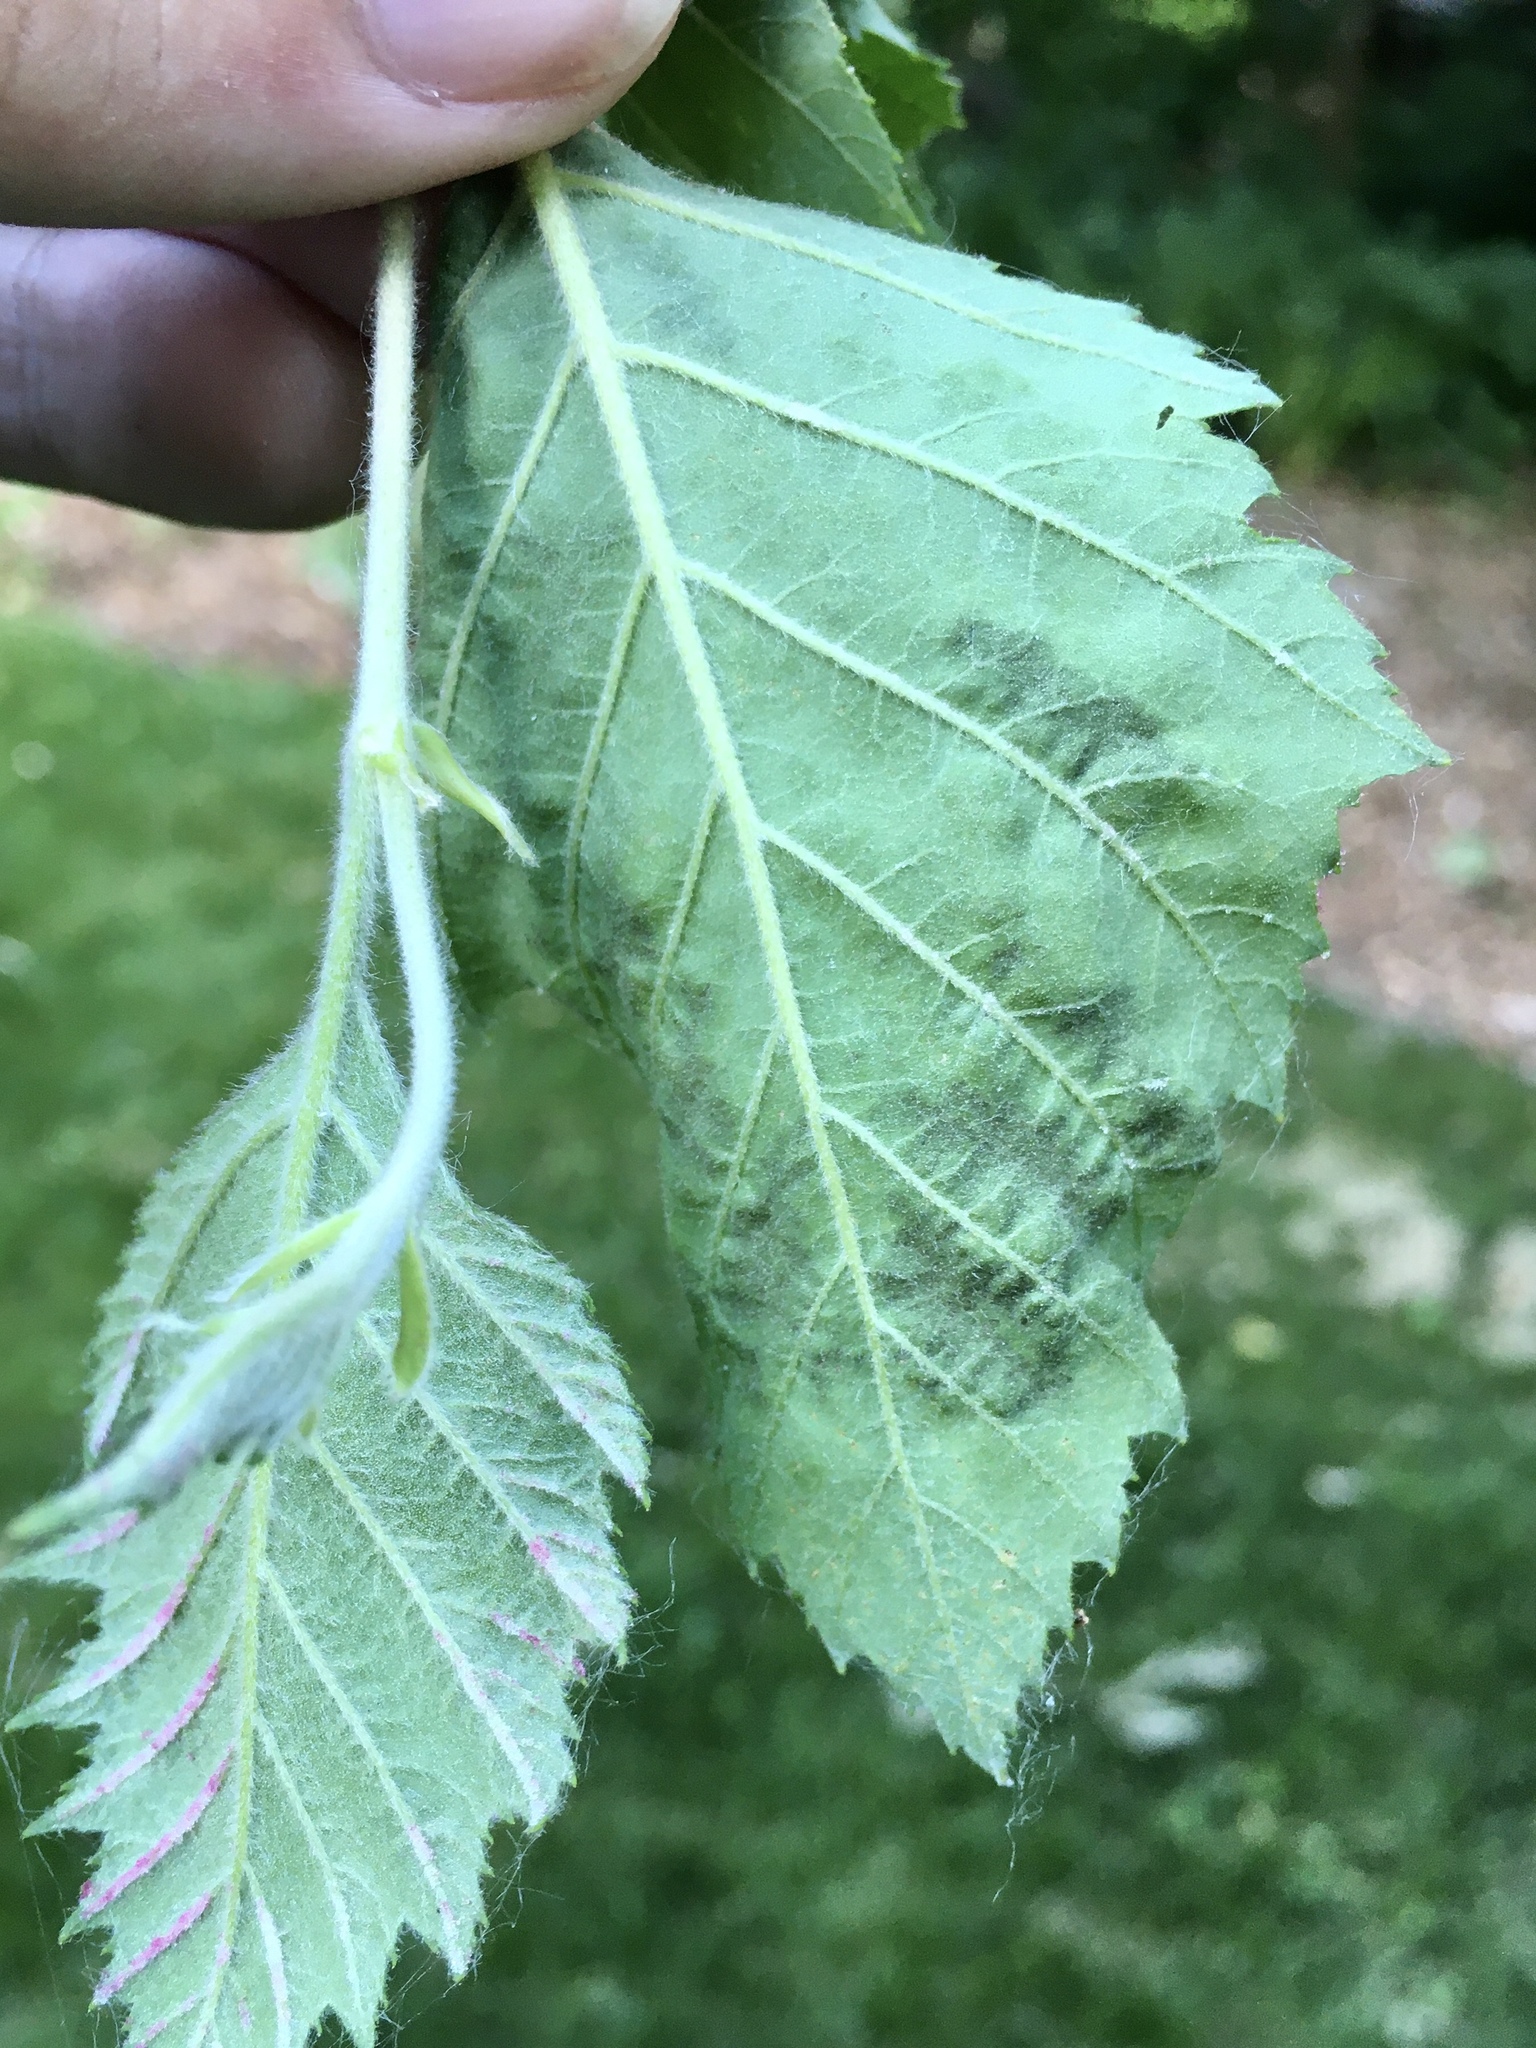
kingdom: Animalia
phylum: Arthropoda
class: Arachnida
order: Trombidiformes
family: Eriophyidae
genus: Acalitus
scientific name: Acalitus longisetosus
